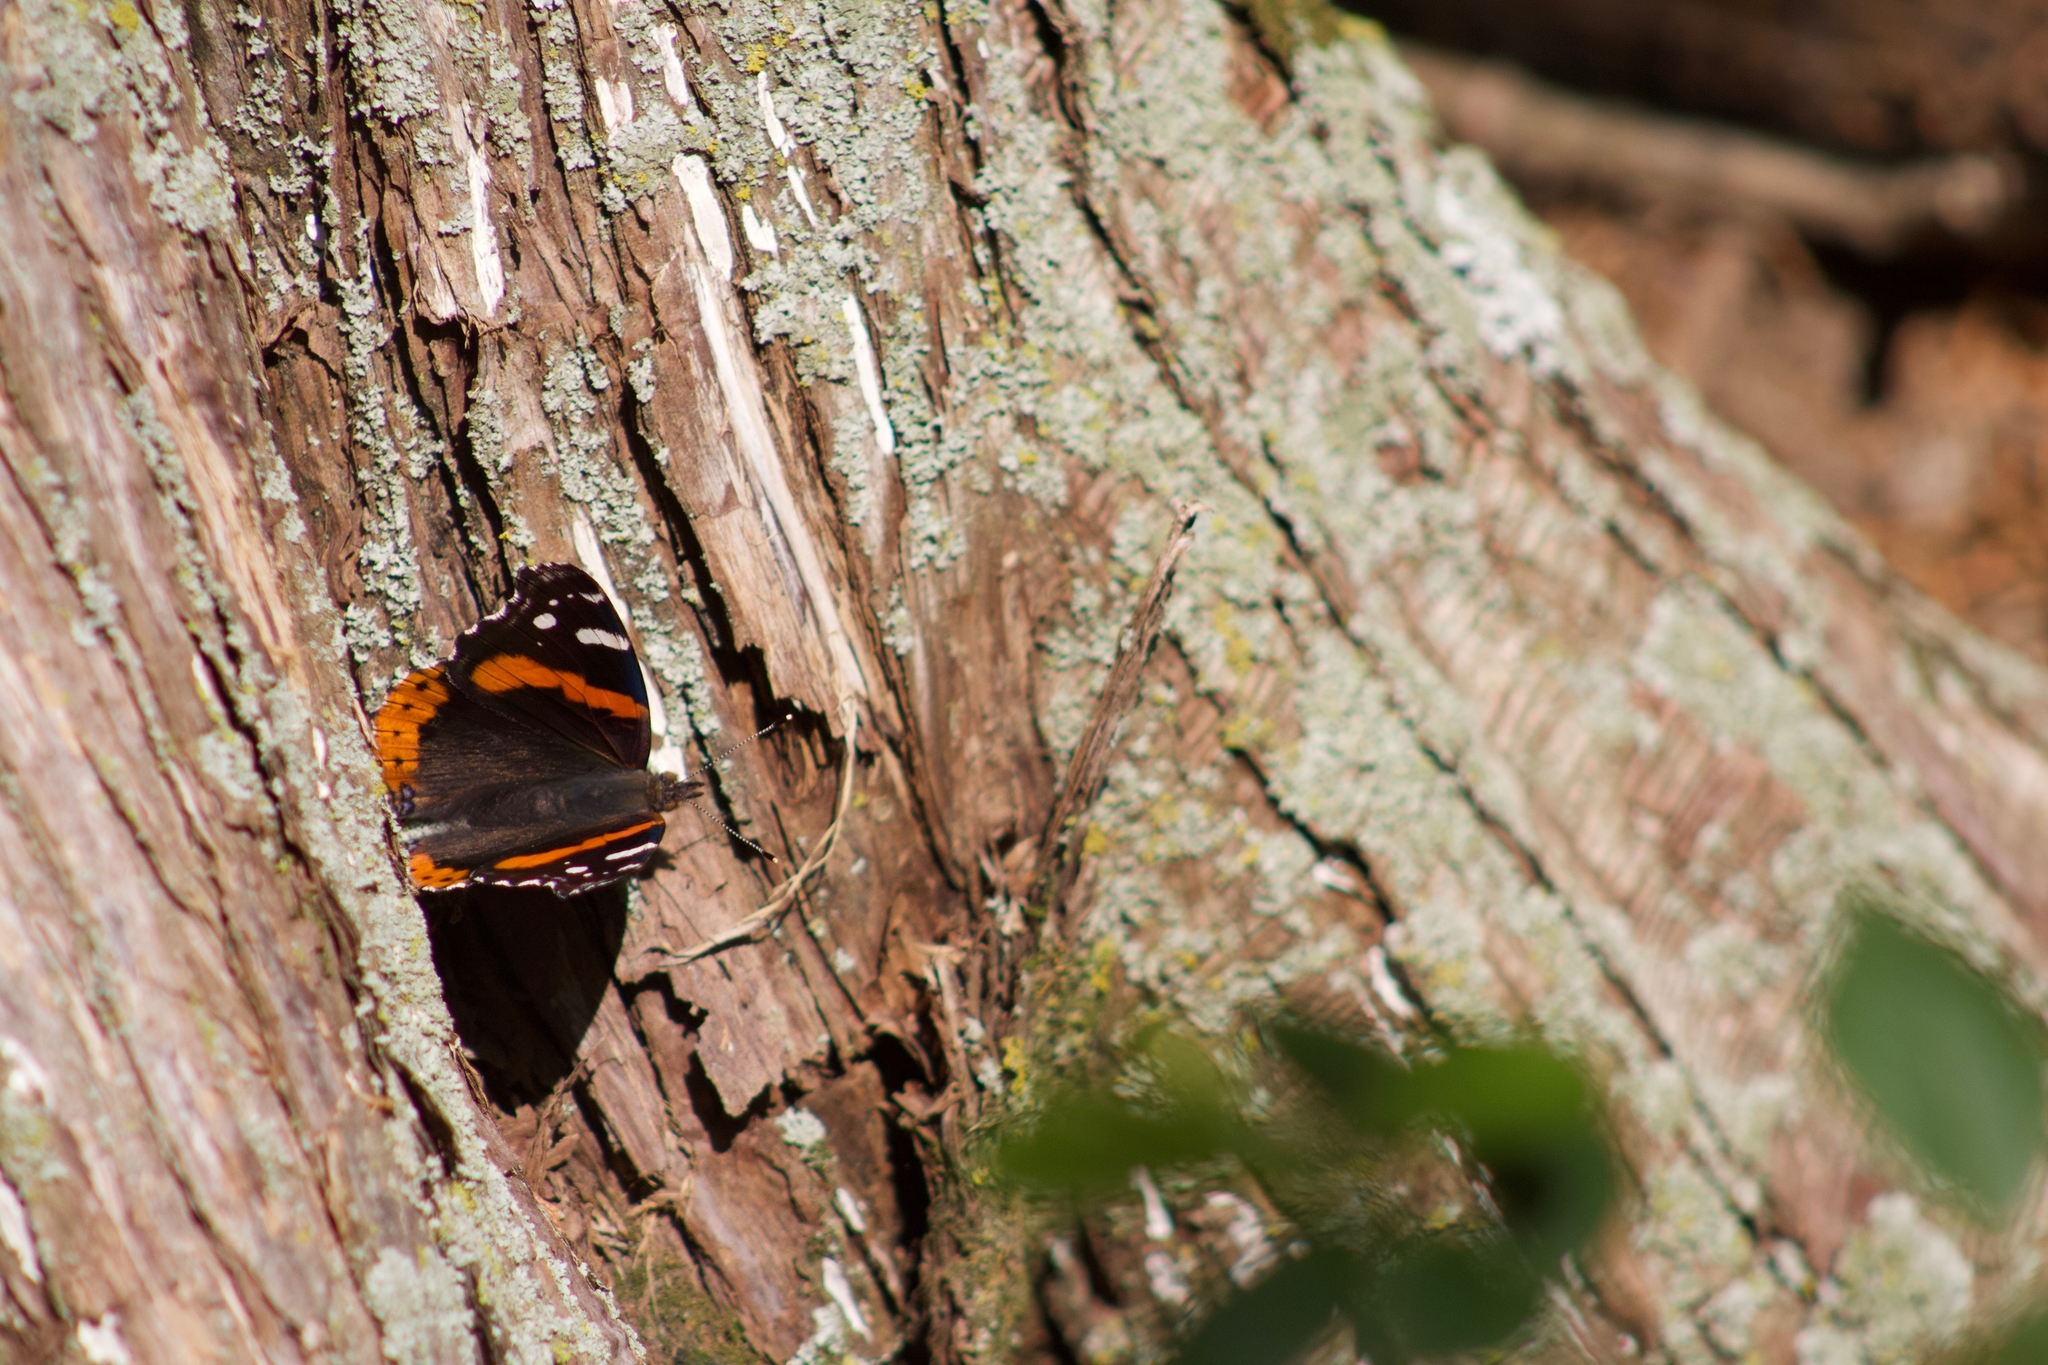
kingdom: Animalia
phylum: Arthropoda
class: Insecta
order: Lepidoptera
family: Nymphalidae
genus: Vanessa
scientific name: Vanessa atalanta
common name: Red admiral
